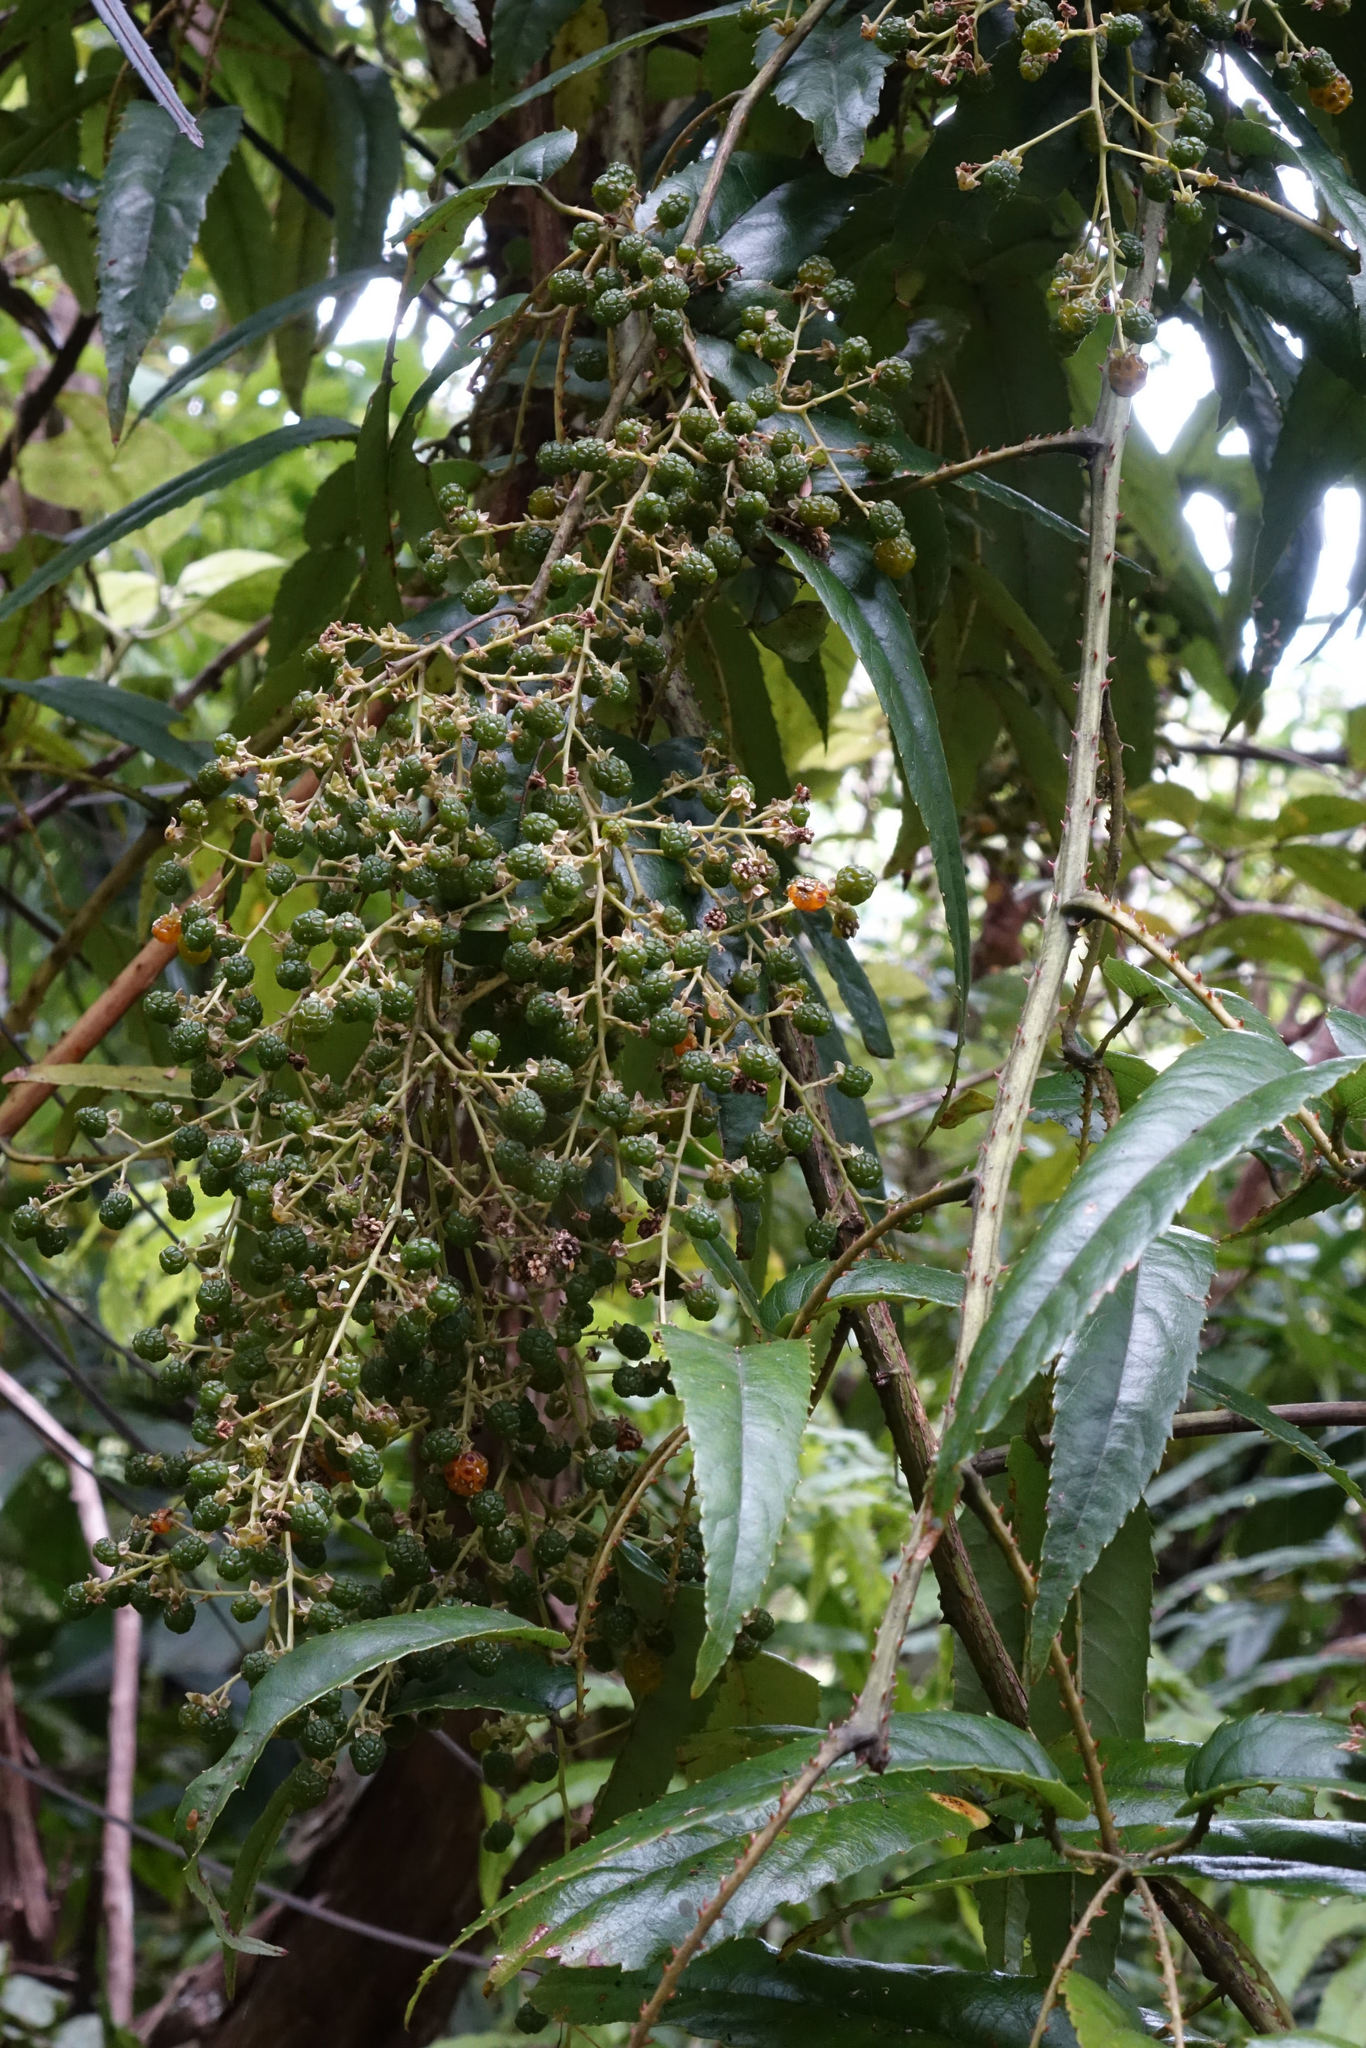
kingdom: Plantae
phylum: Tracheophyta
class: Magnoliopsida
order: Rosales
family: Rosaceae
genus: Rubus
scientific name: Rubus cissoides
